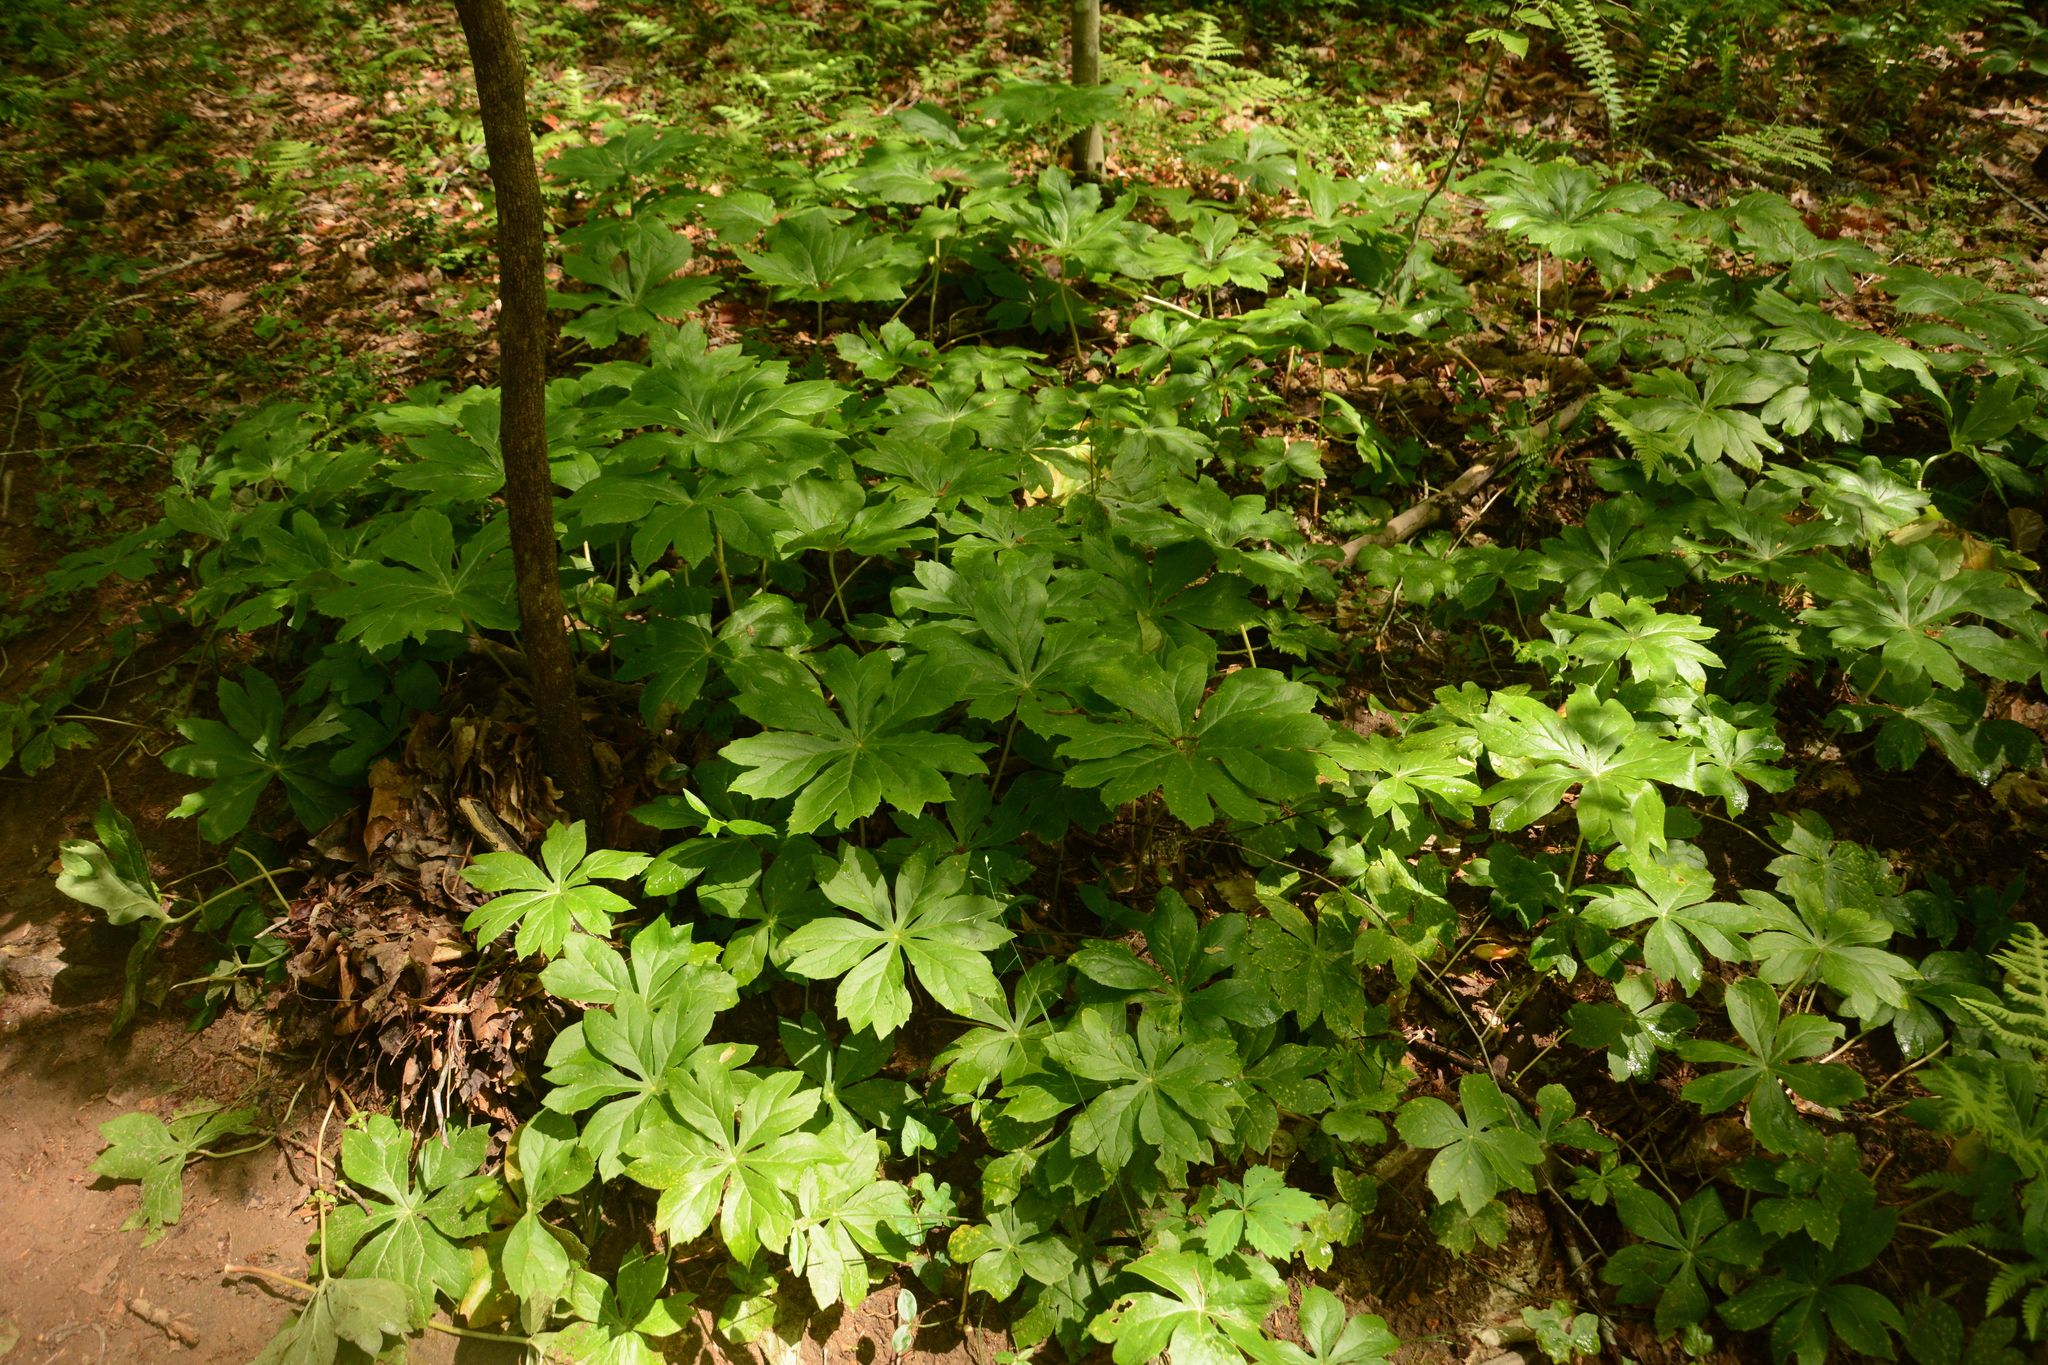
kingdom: Plantae
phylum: Tracheophyta
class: Magnoliopsida
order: Ranunculales
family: Berberidaceae
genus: Podophyllum
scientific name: Podophyllum peltatum
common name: Wild mandrake
